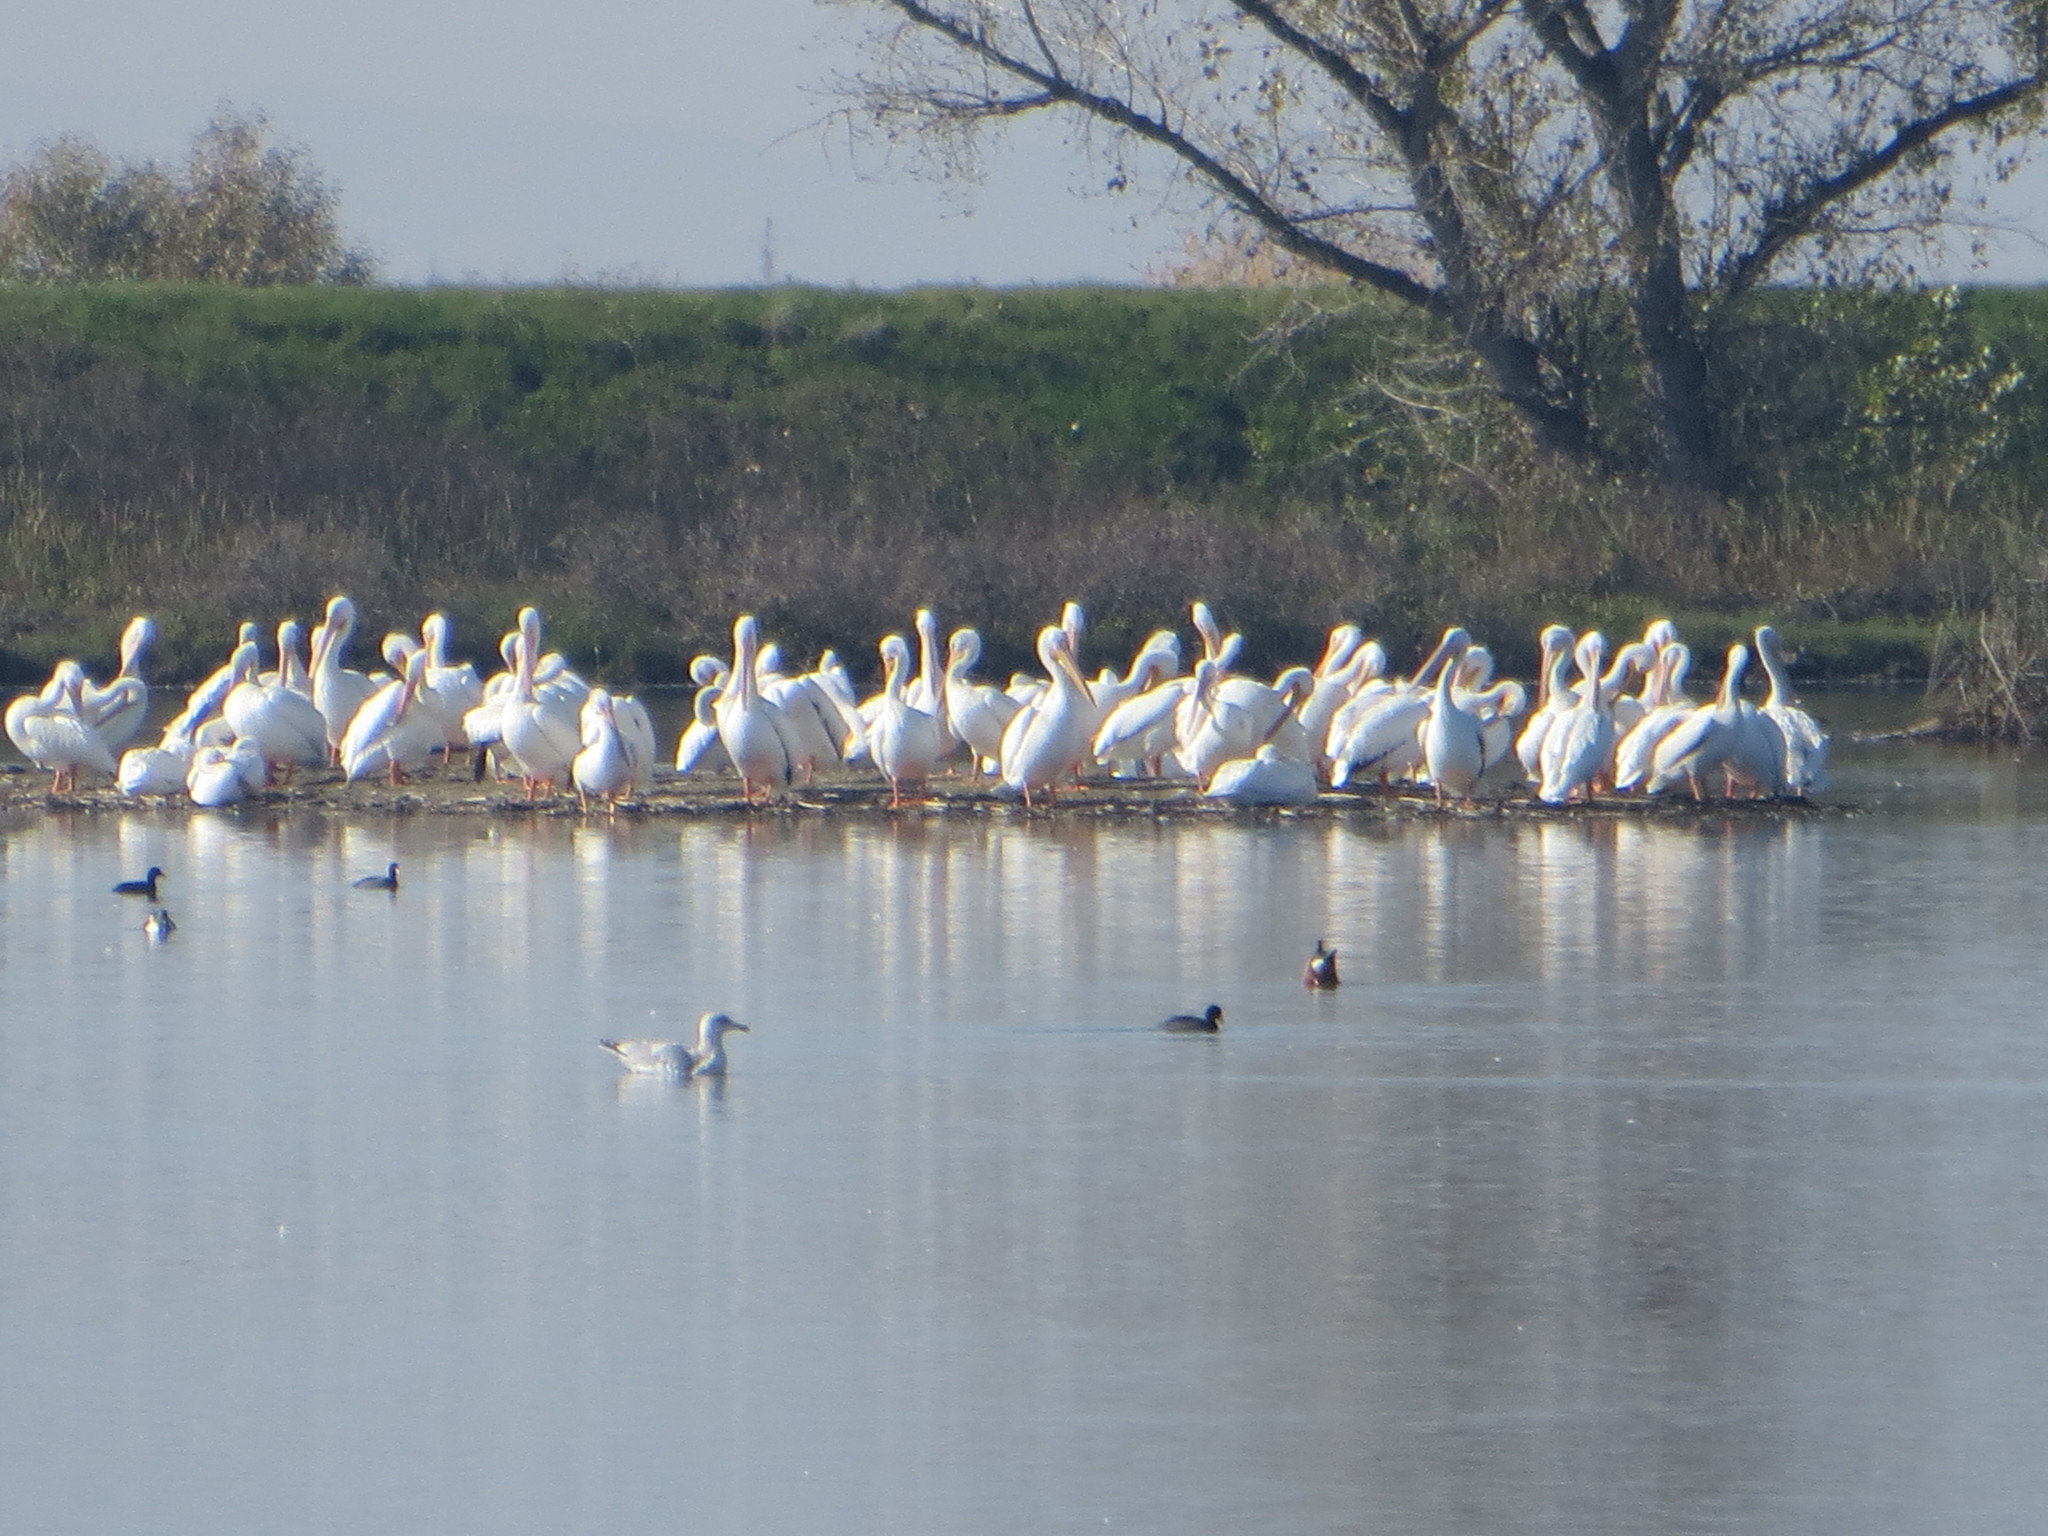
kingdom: Animalia
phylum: Chordata
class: Aves
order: Pelecaniformes
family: Pelecanidae
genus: Pelecanus
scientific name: Pelecanus erythrorhynchos
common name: American white pelican
